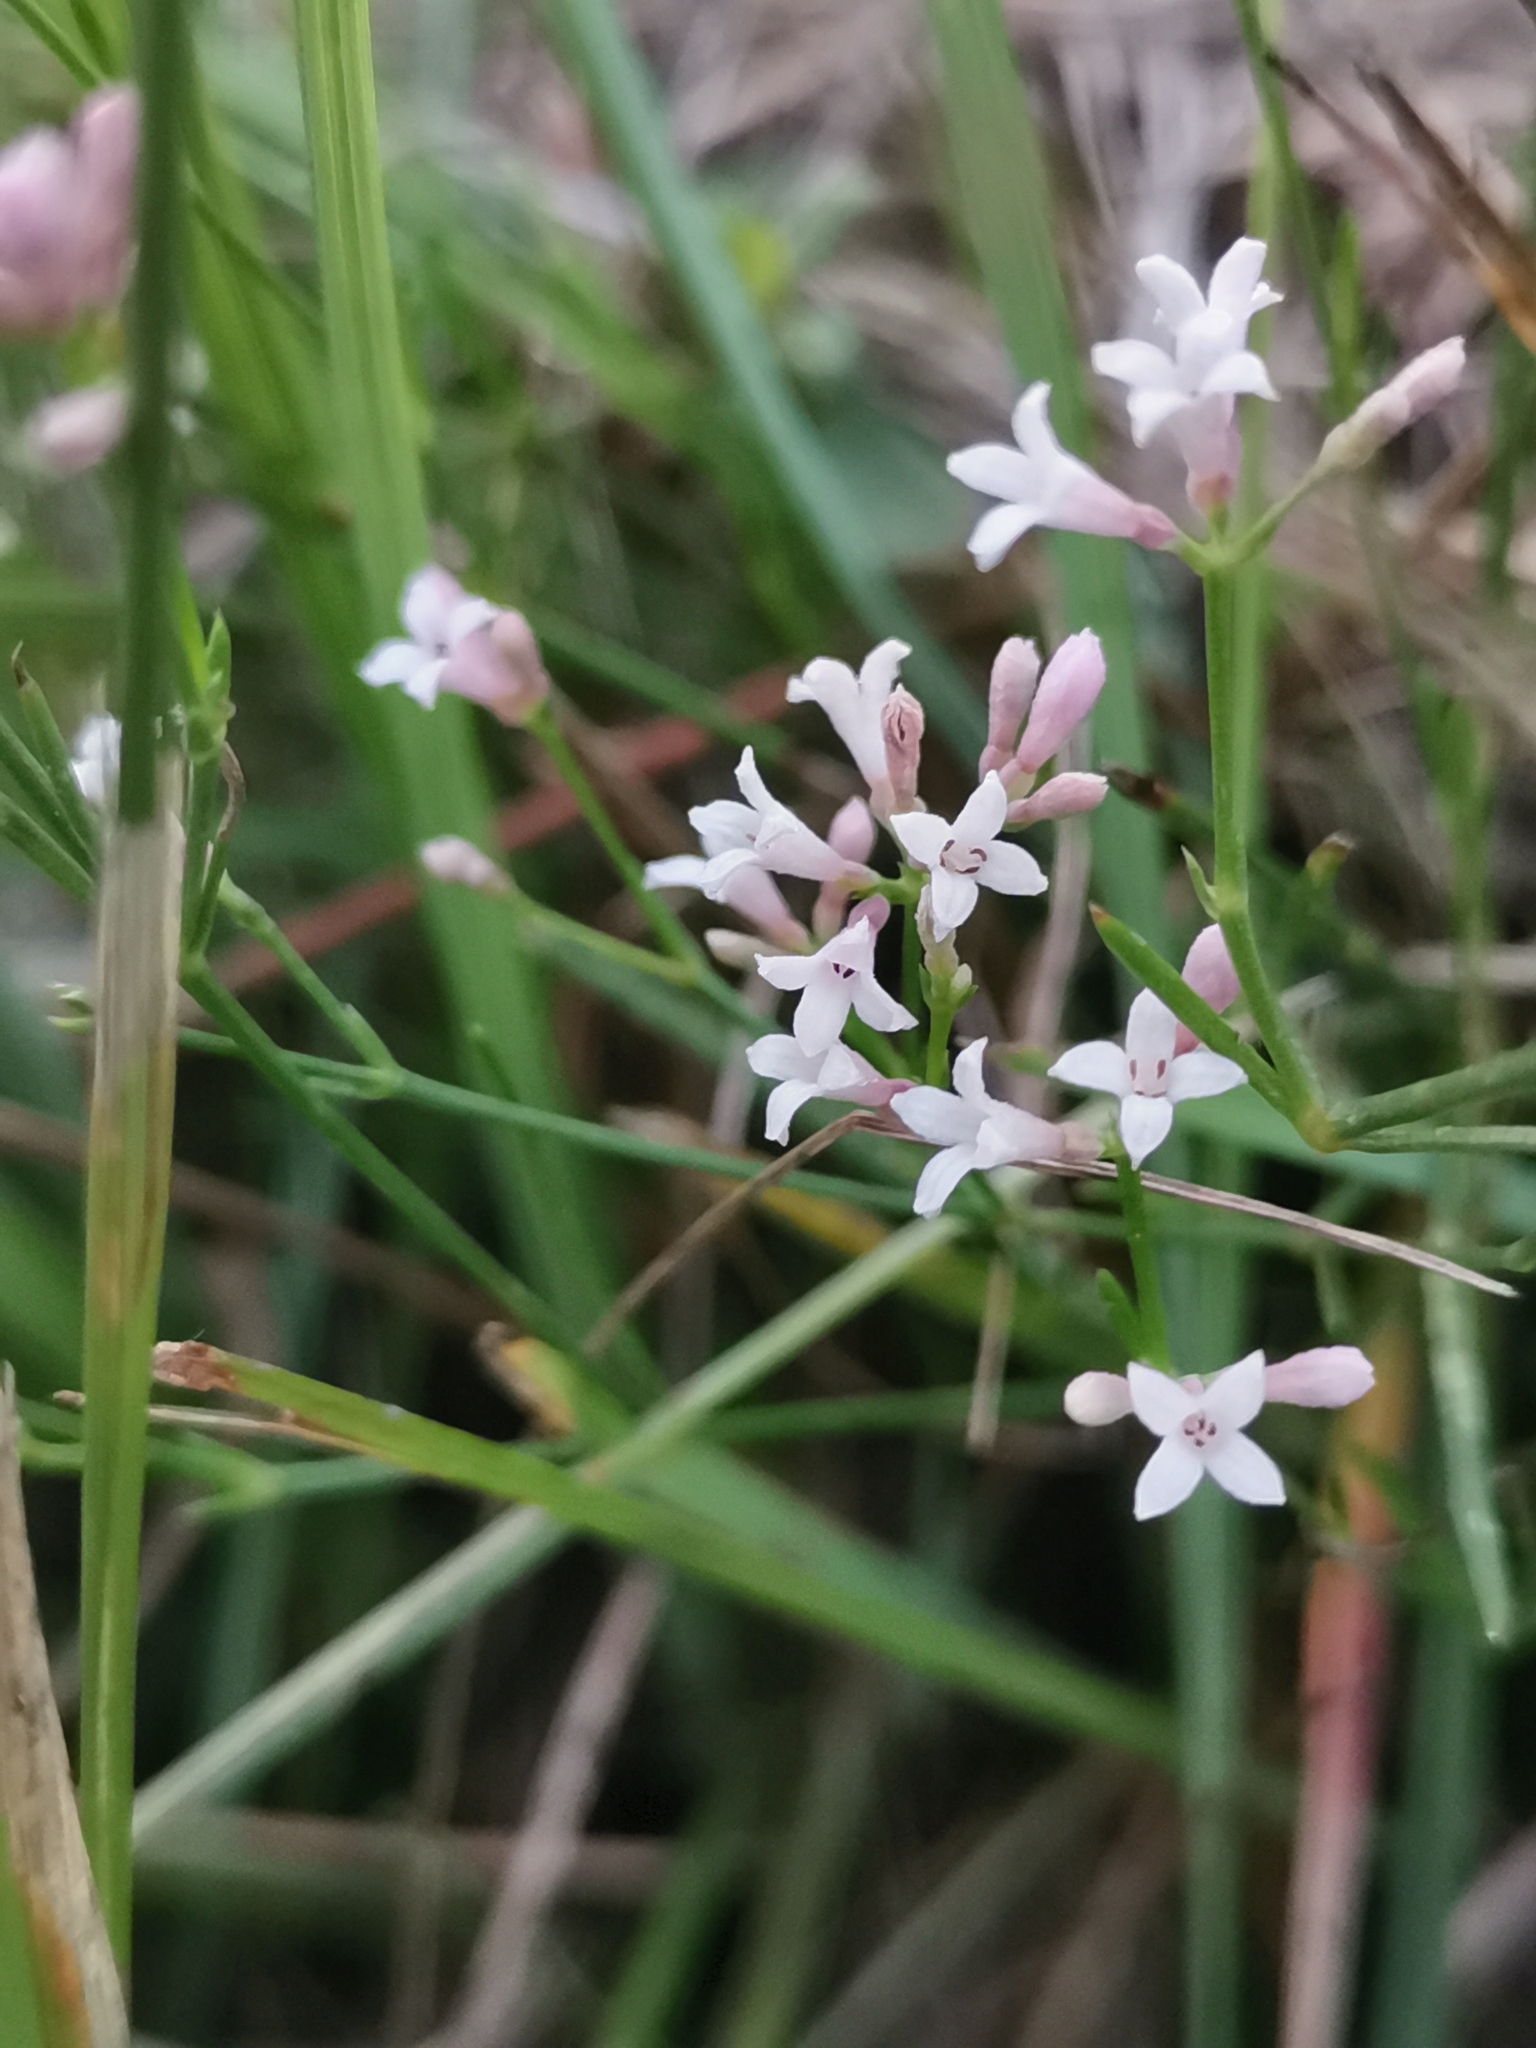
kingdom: Plantae
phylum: Tracheophyta
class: Magnoliopsida
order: Gentianales
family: Rubiaceae
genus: Cynanchica
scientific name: Cynanchica pyrenaica
